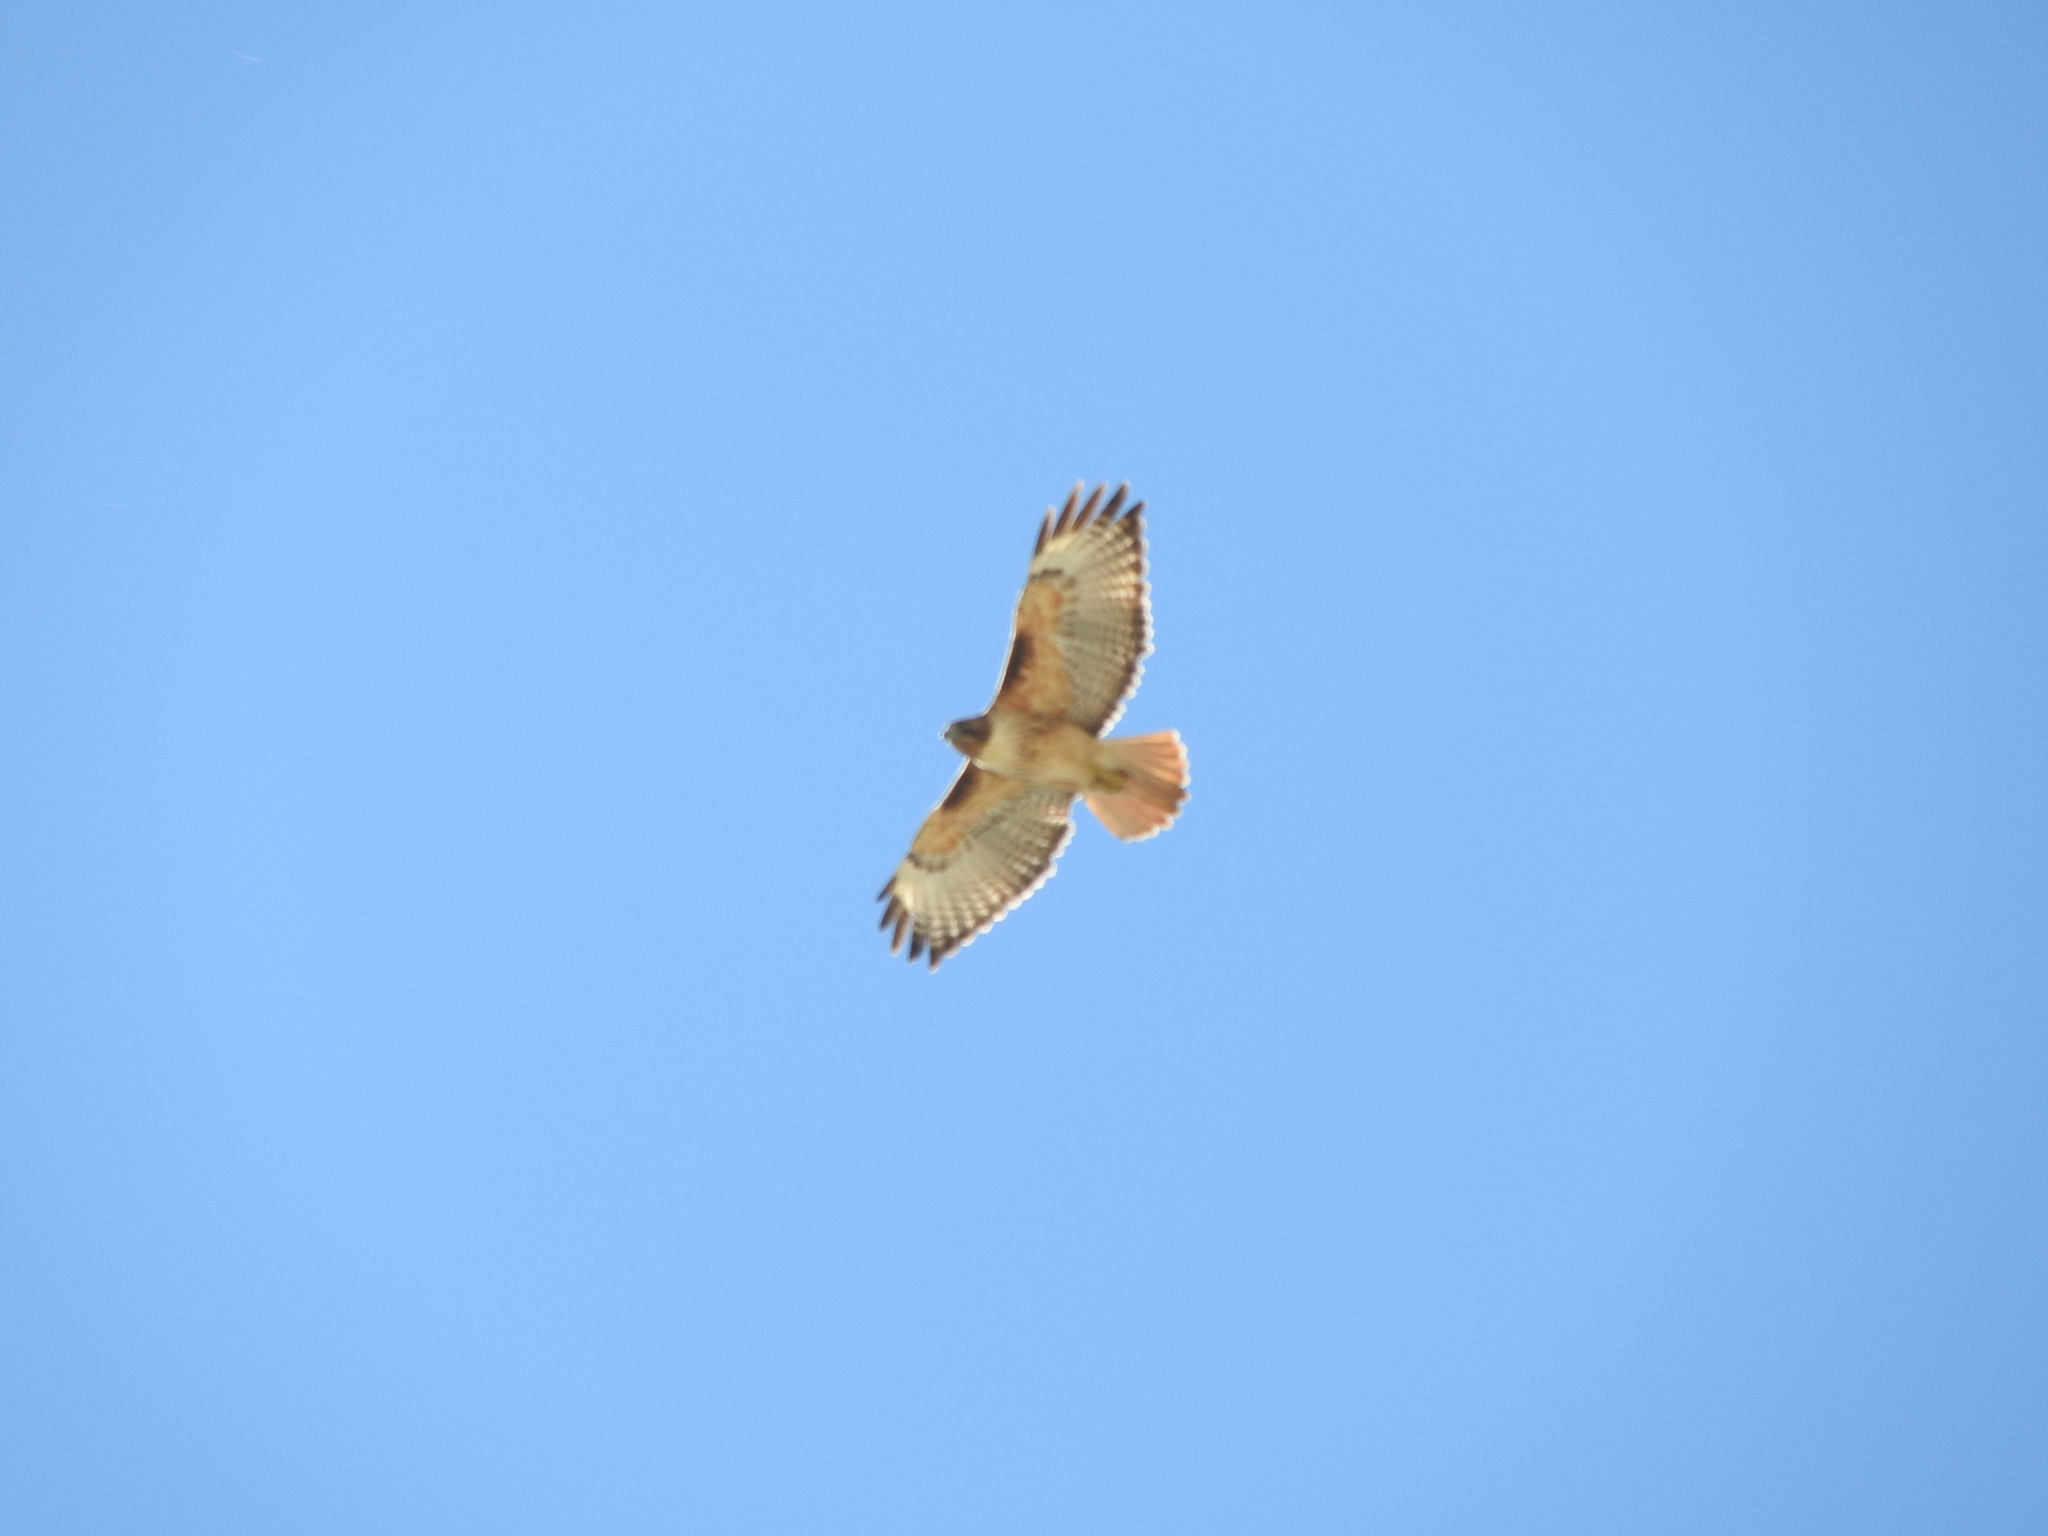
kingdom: Animalia
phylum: Chordata
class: Aves
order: Accipitriformes
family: Accipitridae
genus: Buteo
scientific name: Buteo jamaicensis
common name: Red-tailed hawk
